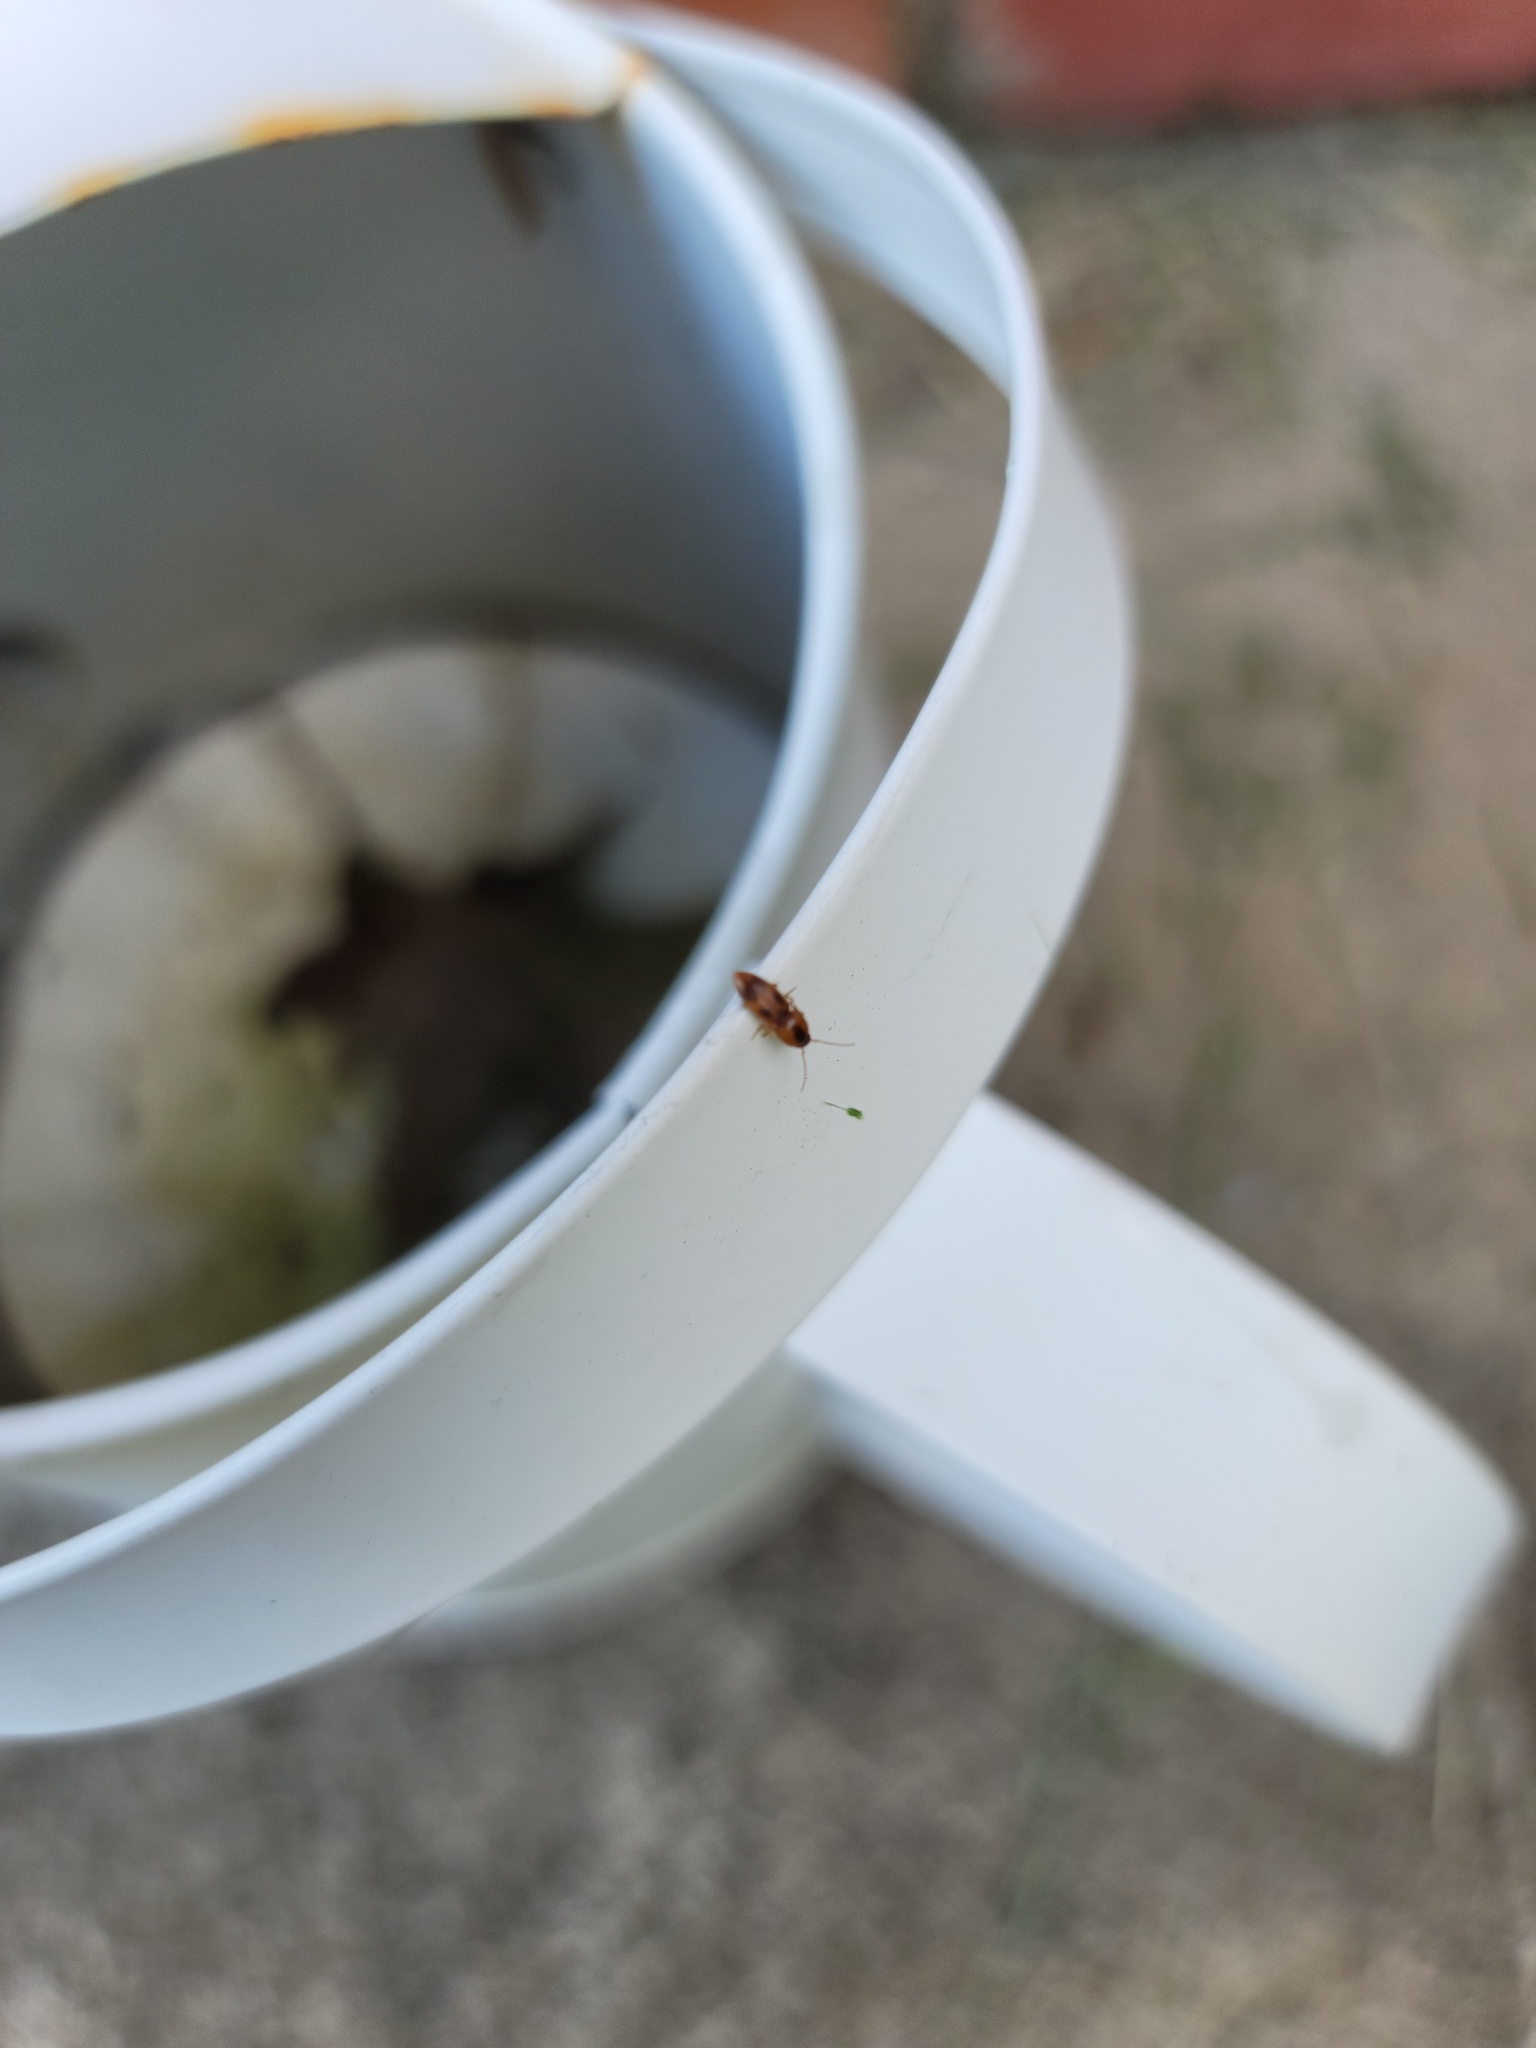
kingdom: Animalia
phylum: Arthropoda
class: Insecta
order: Coleoptera
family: Elateridae
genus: Aeolus
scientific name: Aeolus mellillus
